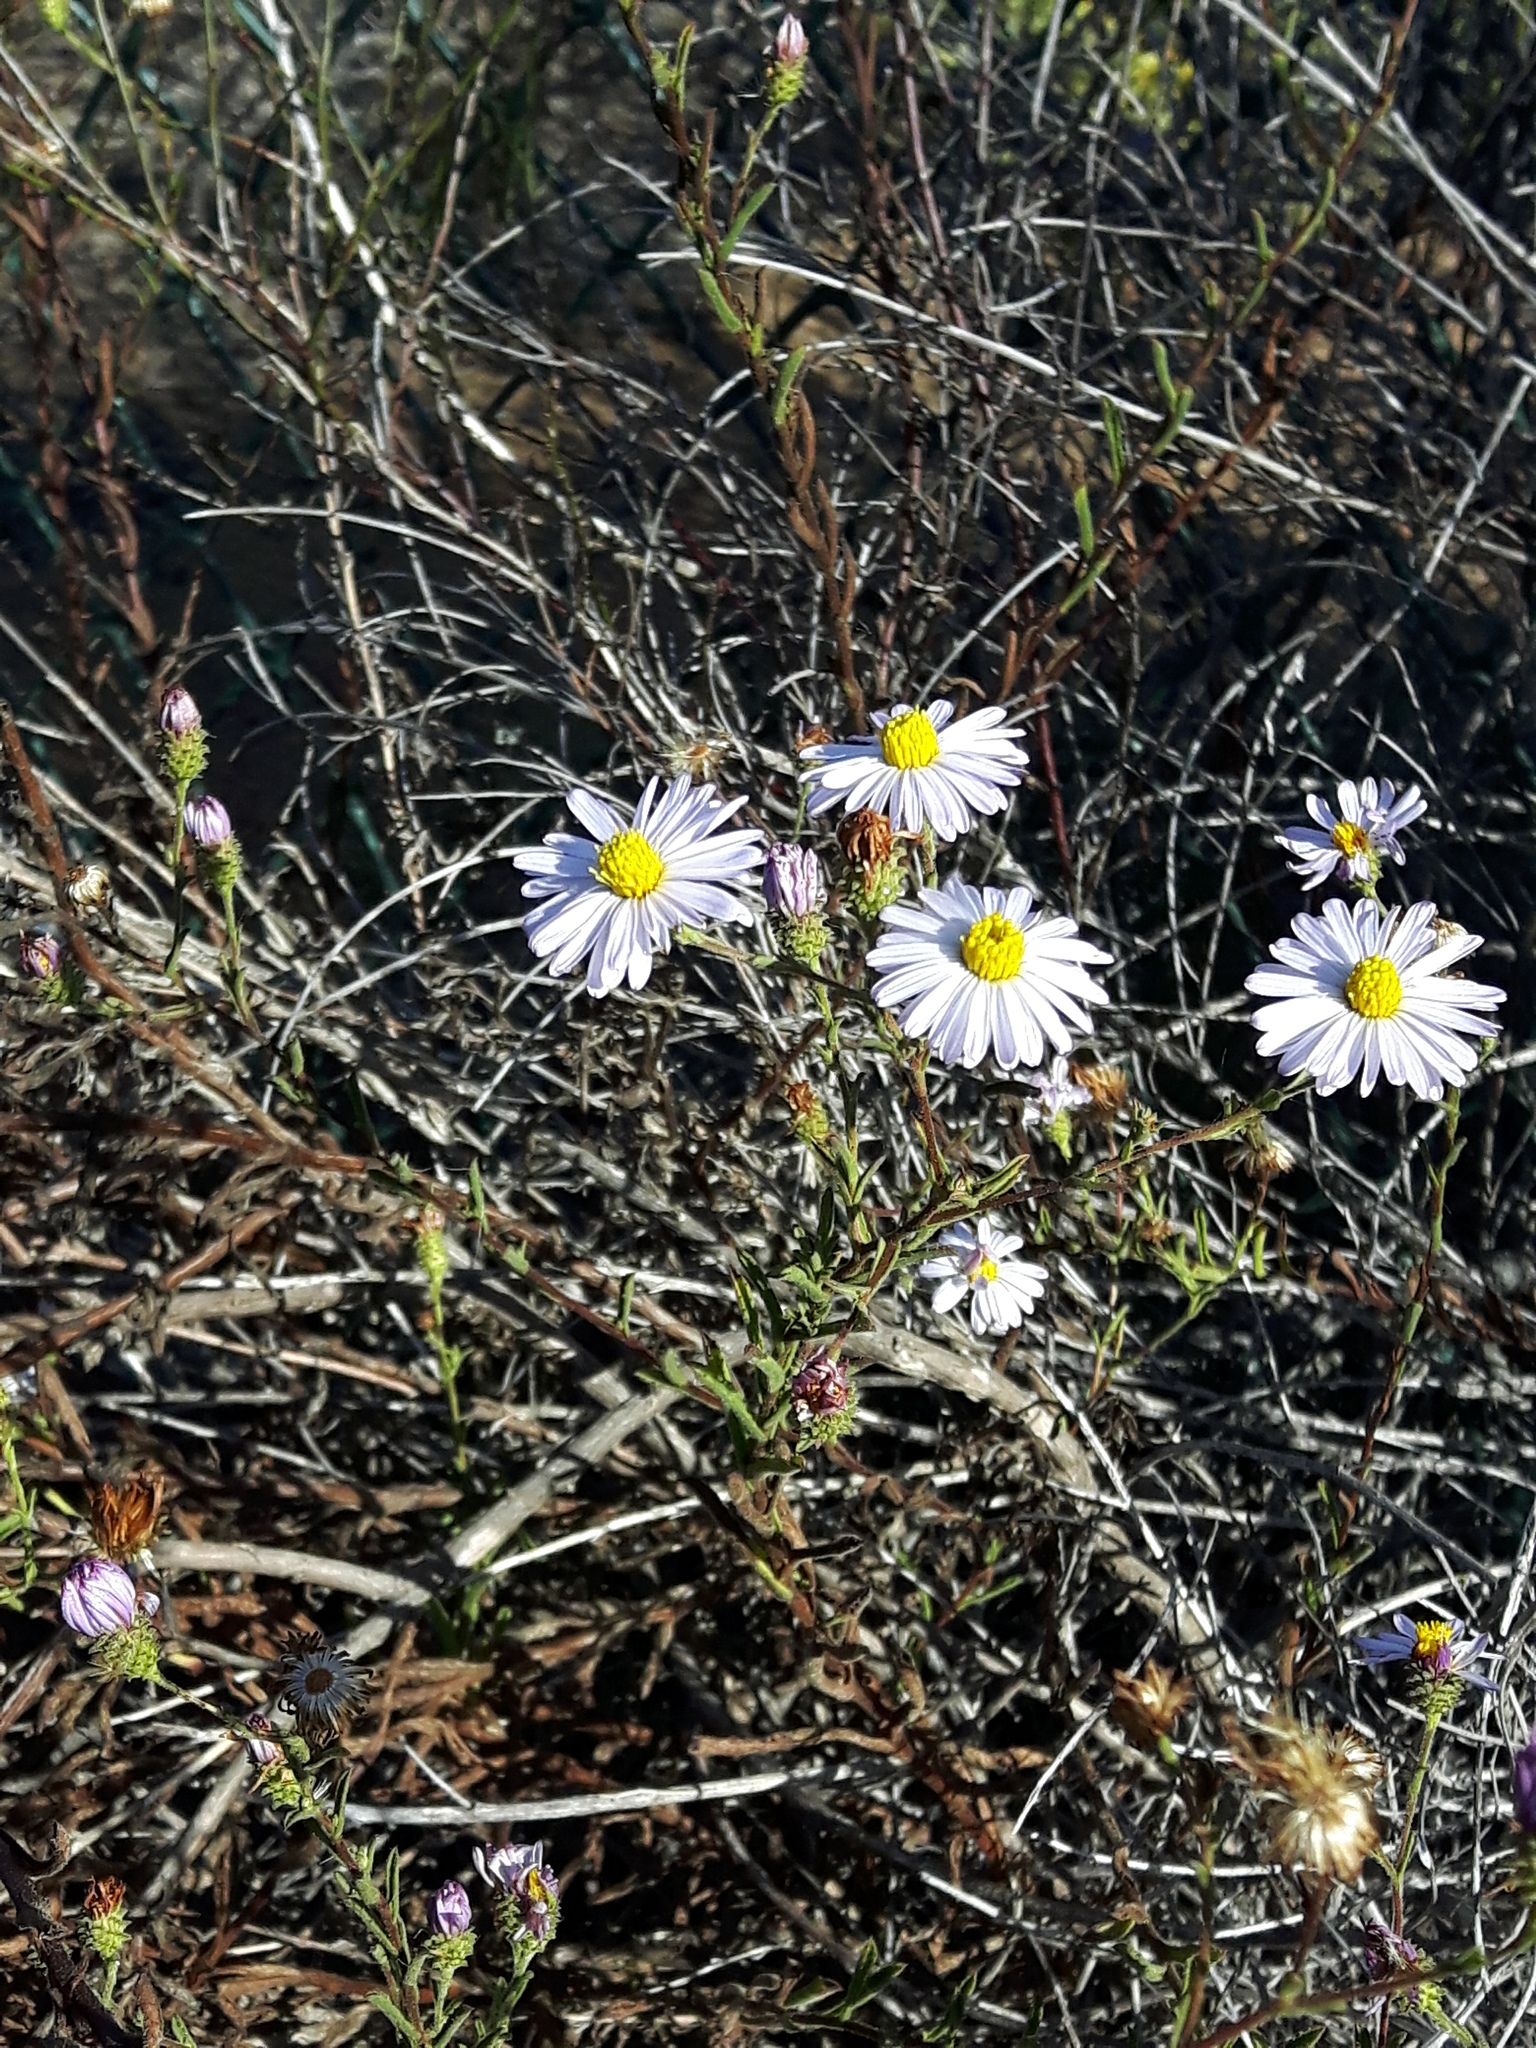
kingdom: Plantae
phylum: Tracheophyta
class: Magnoliopsida
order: Asterales
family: Asteraceae
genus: Corethrogyne
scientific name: Corethrogyne filaginifolia
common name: Sand-aster
